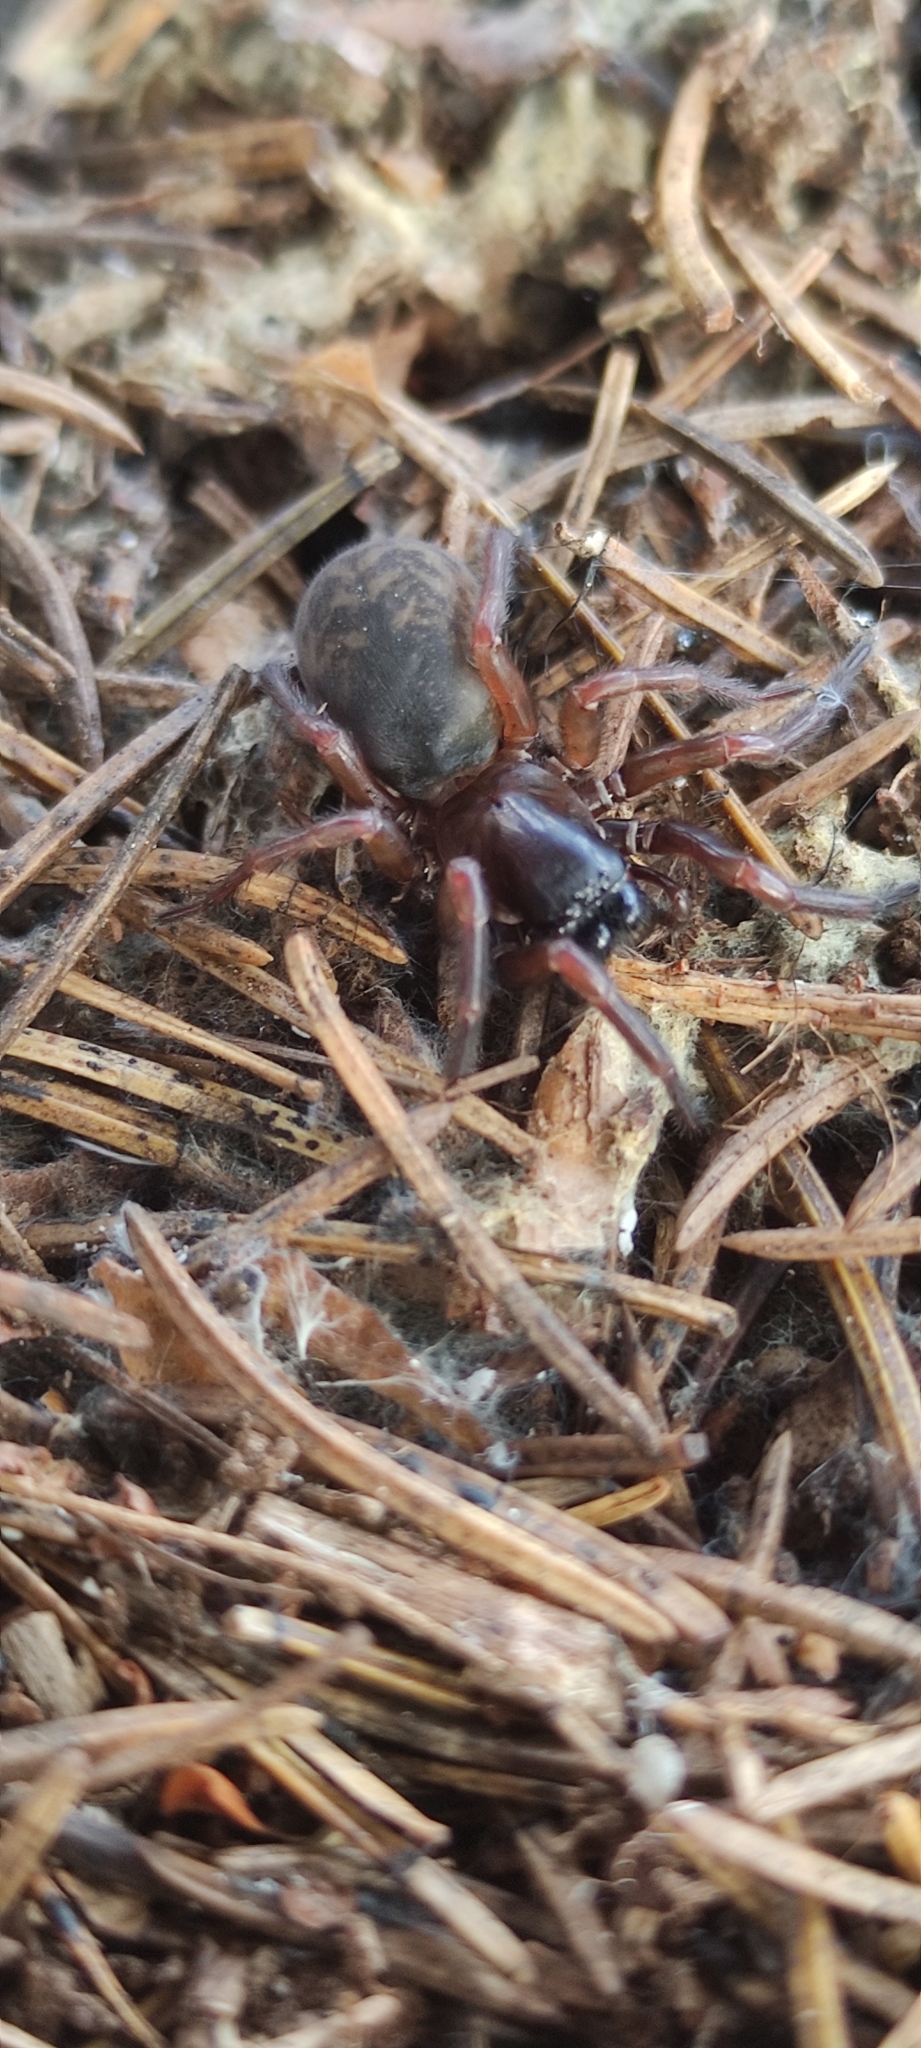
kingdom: Animalia
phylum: Arthropoda
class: Arachnida
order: Araneae
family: Amaurobiidae
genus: Callobius
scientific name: Callobius claustrarius
